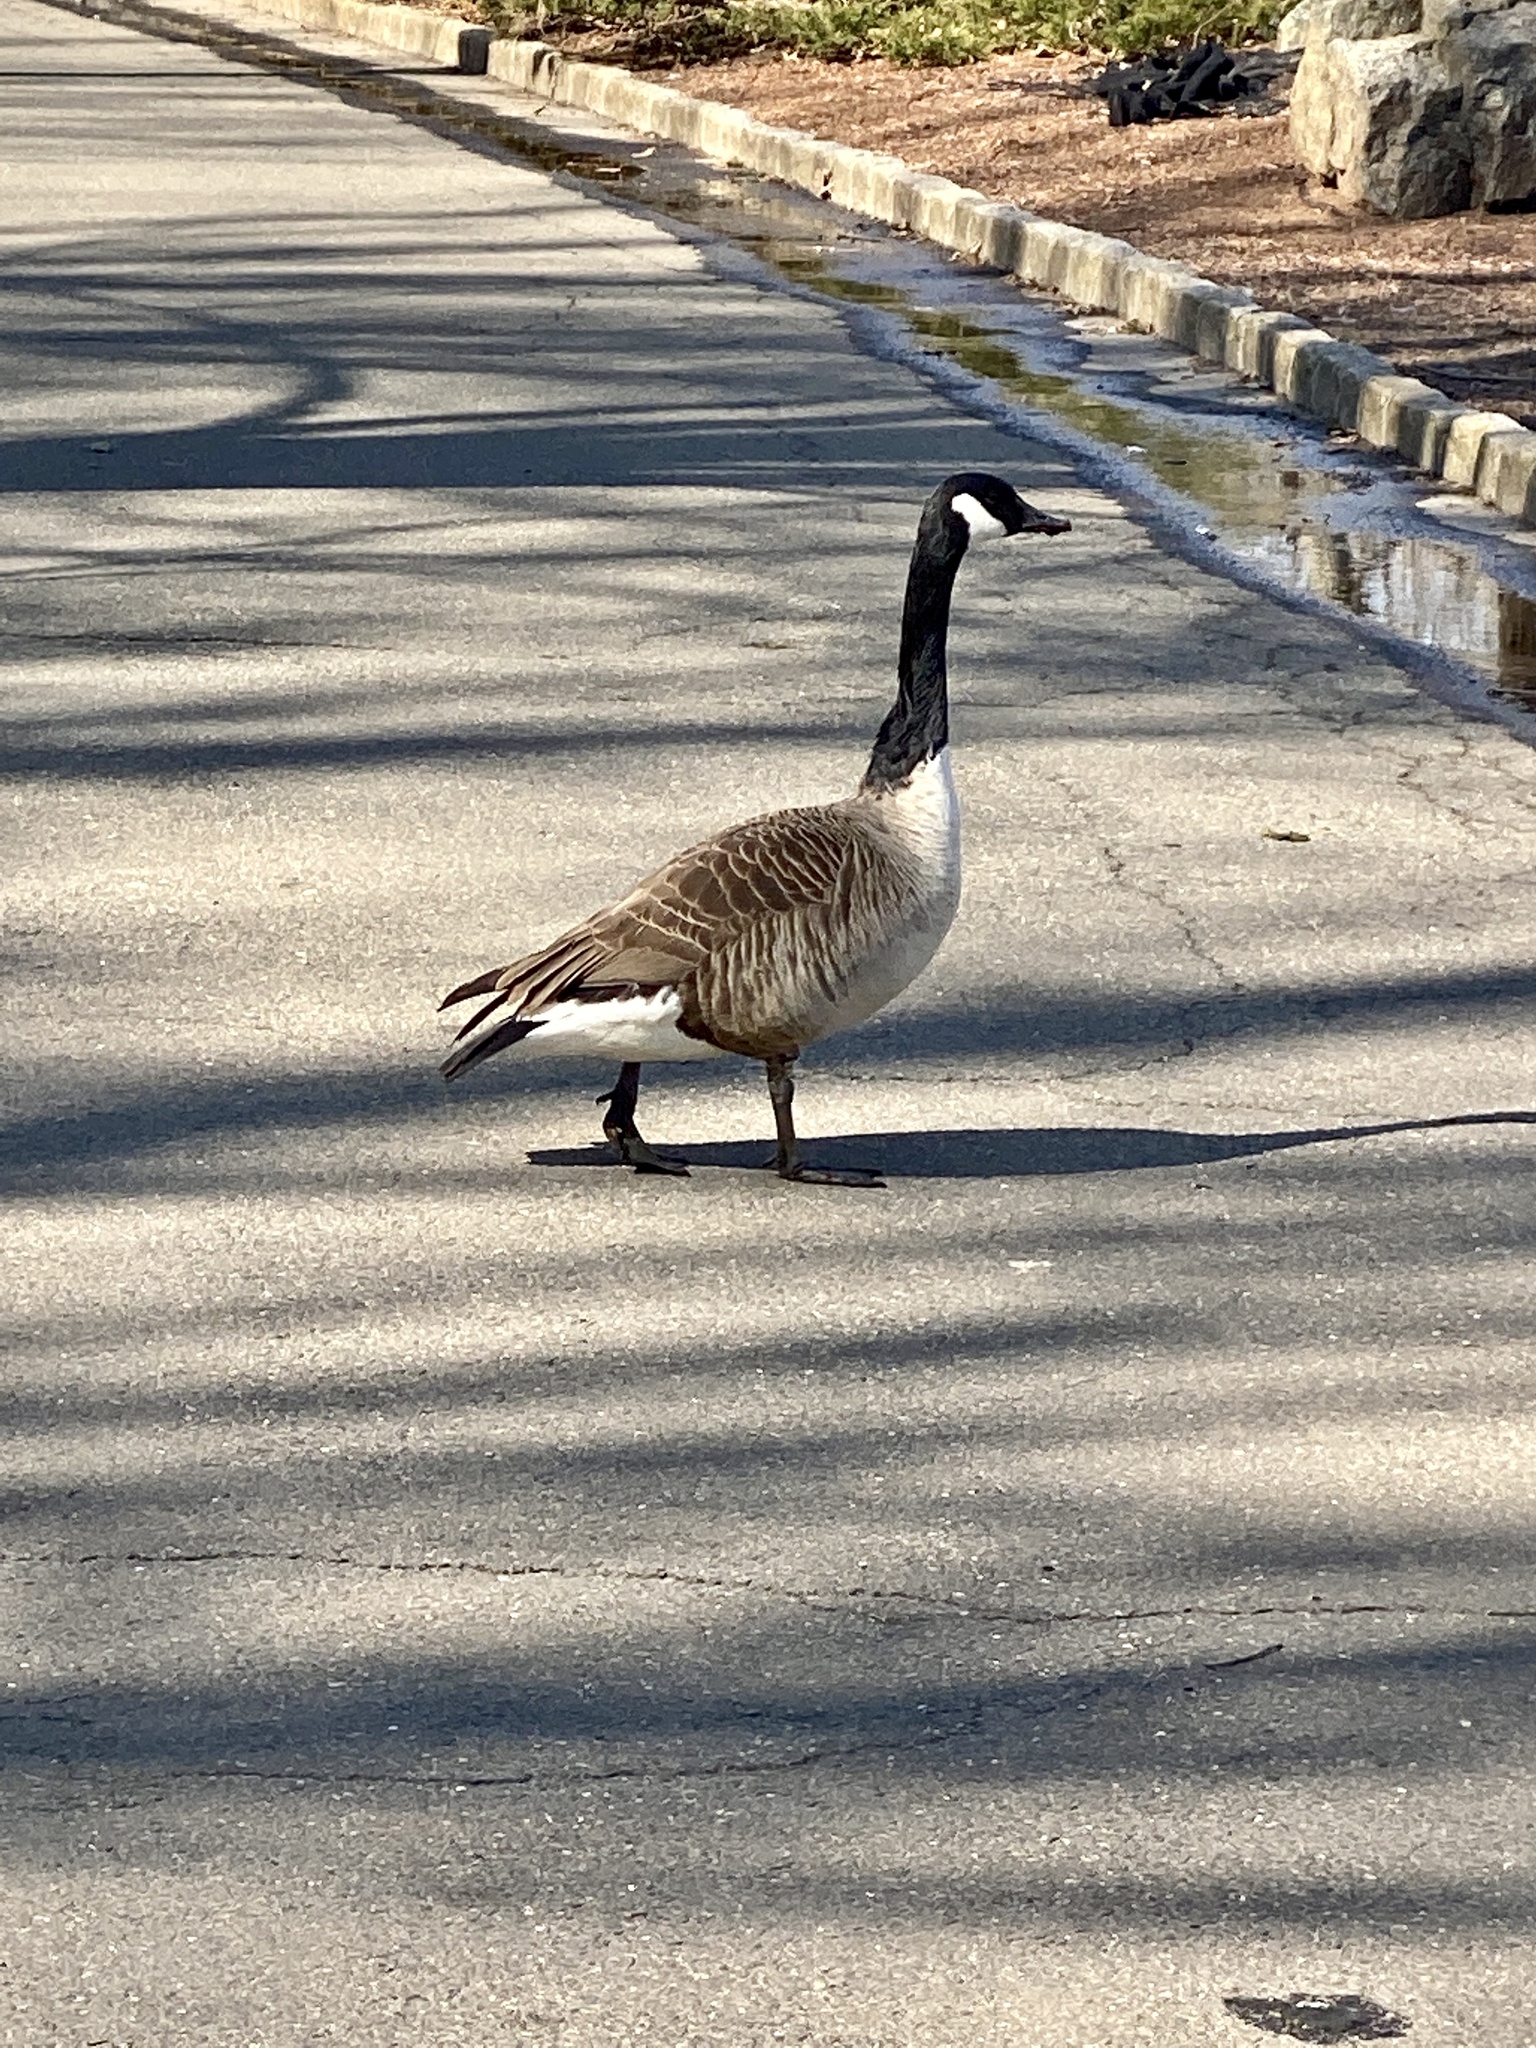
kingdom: Animalia
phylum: Chordata
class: Aves
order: Anseriformes
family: Anatidae
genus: Branta
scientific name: Branta canadensis
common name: Canada goose
